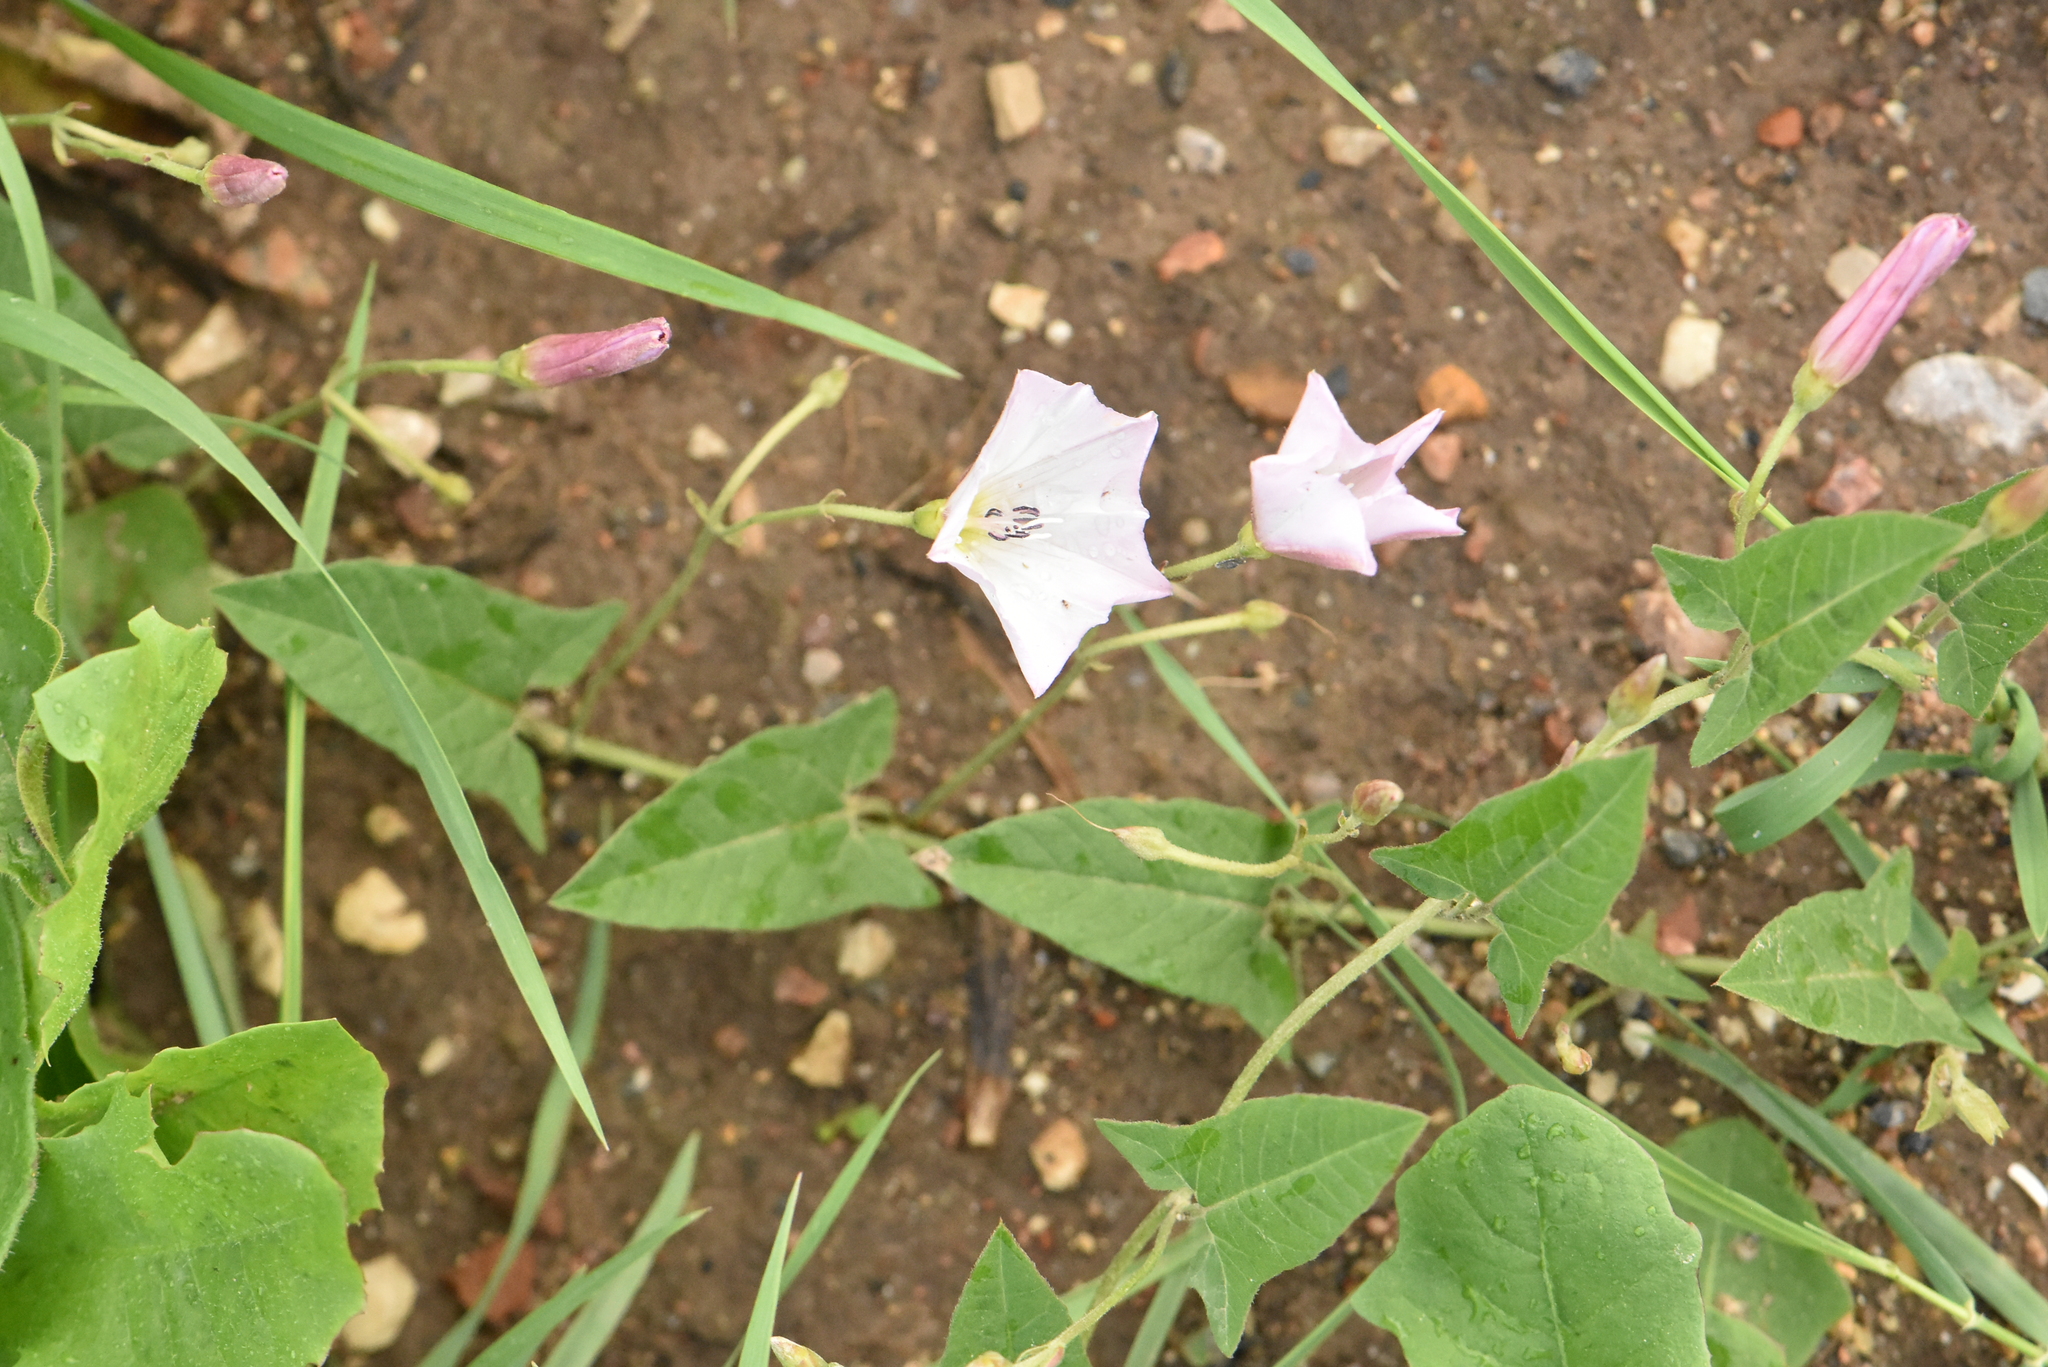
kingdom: Plantae
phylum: Tracheophyta
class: Magnoliopsida
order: Solanales
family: Convolvulaceae
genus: Convolvulus
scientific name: Convolvulus arvensis
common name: Field bindweed
